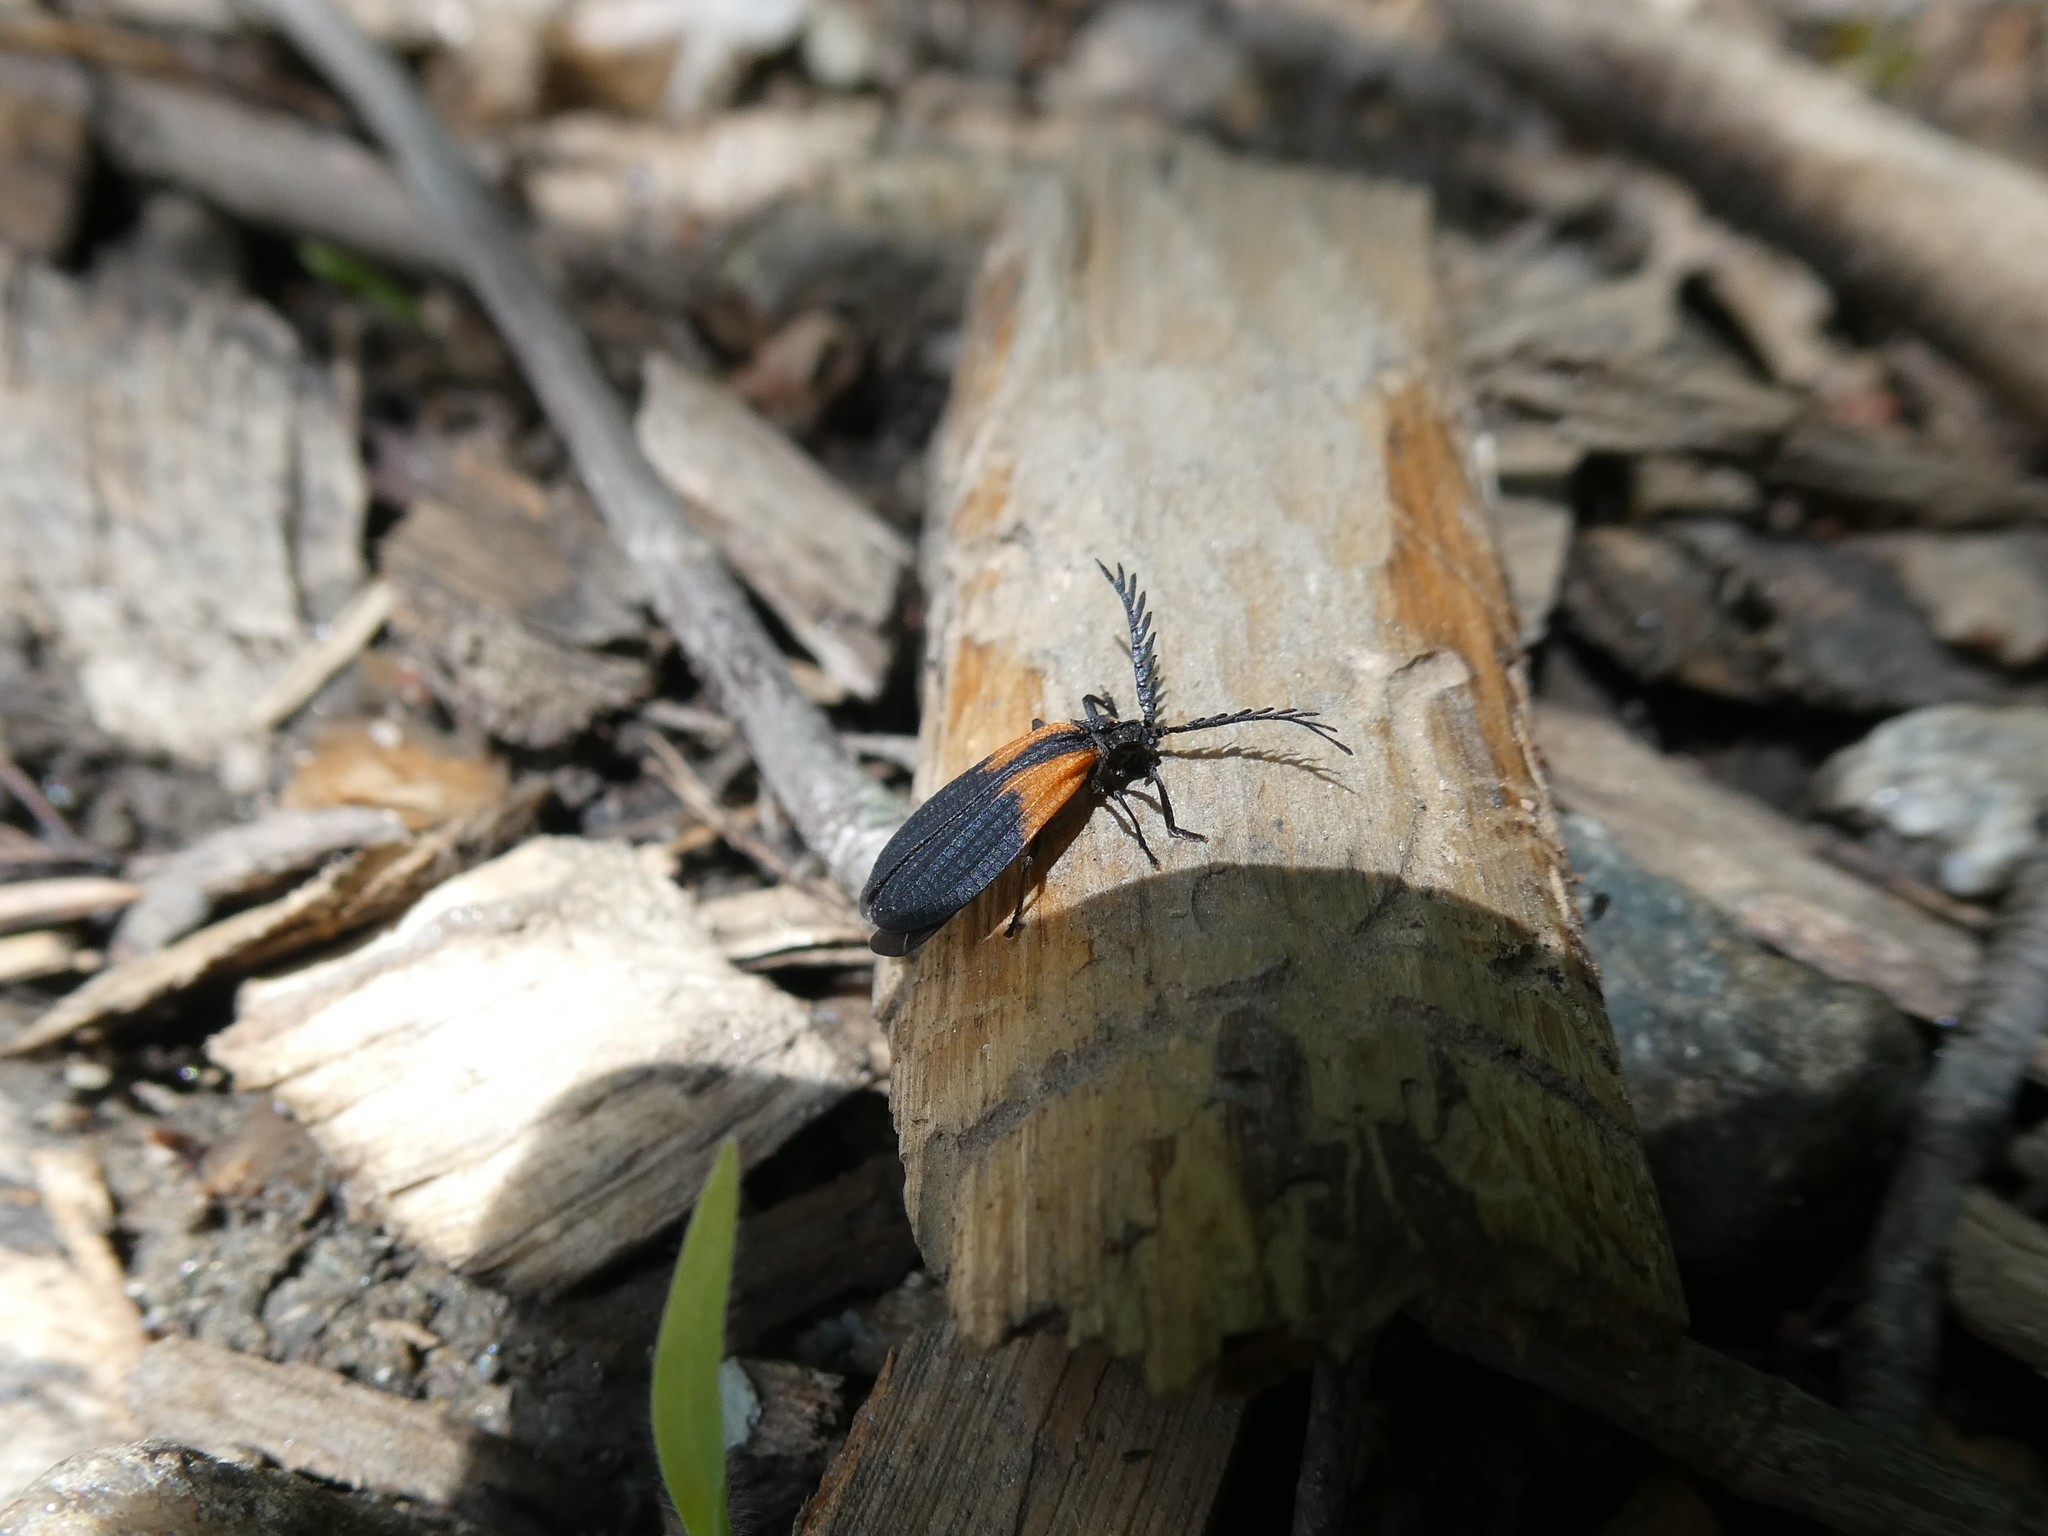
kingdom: Animalia
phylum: Arthropoda
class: Insecta
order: Coleoptera
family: Lycidae
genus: Caenia
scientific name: Caenia dimidiata
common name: Terminal net-winged beetle
